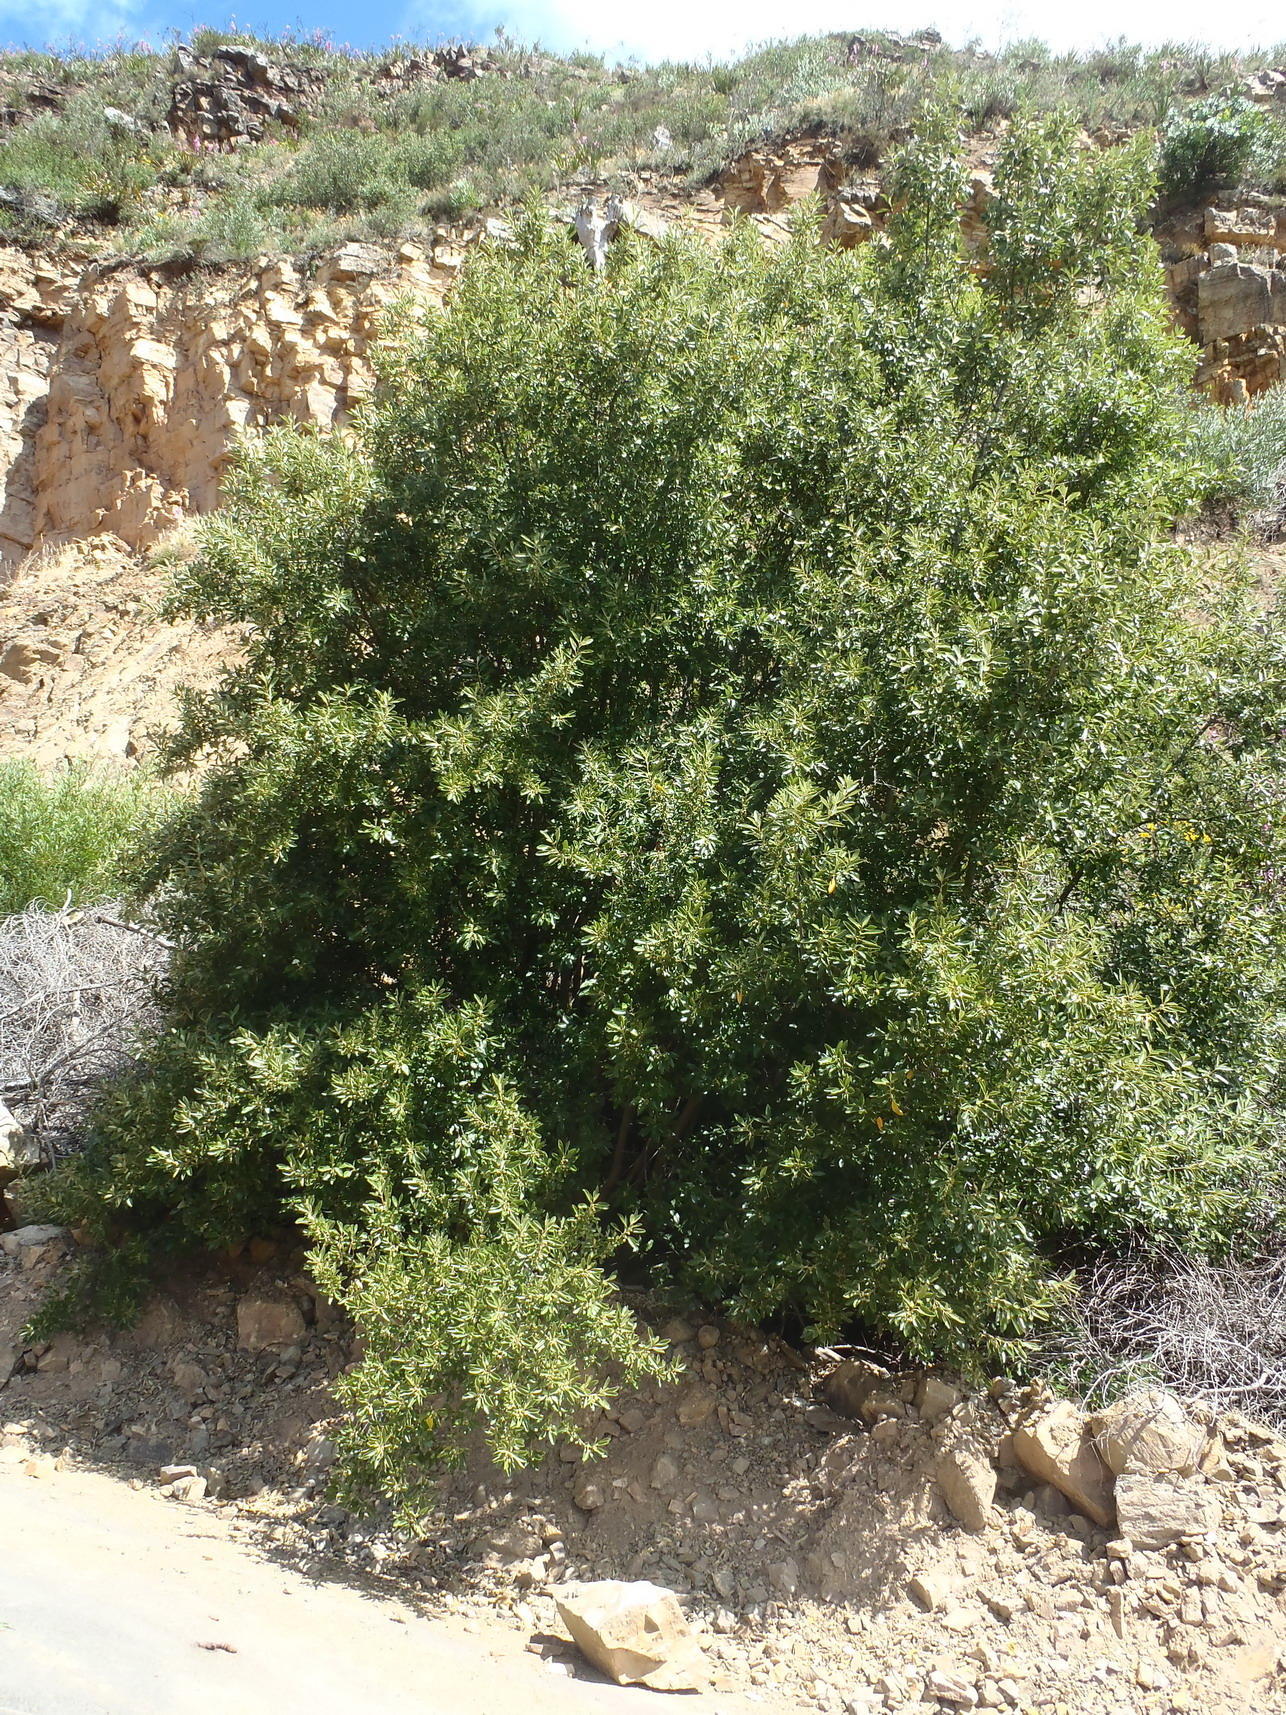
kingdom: Plantae
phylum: Tracheophyta
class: Magnoliopsida
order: Malpighiales
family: Achariaceae
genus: Kiggelaria
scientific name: Kiggelaria africana
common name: Wild peach
